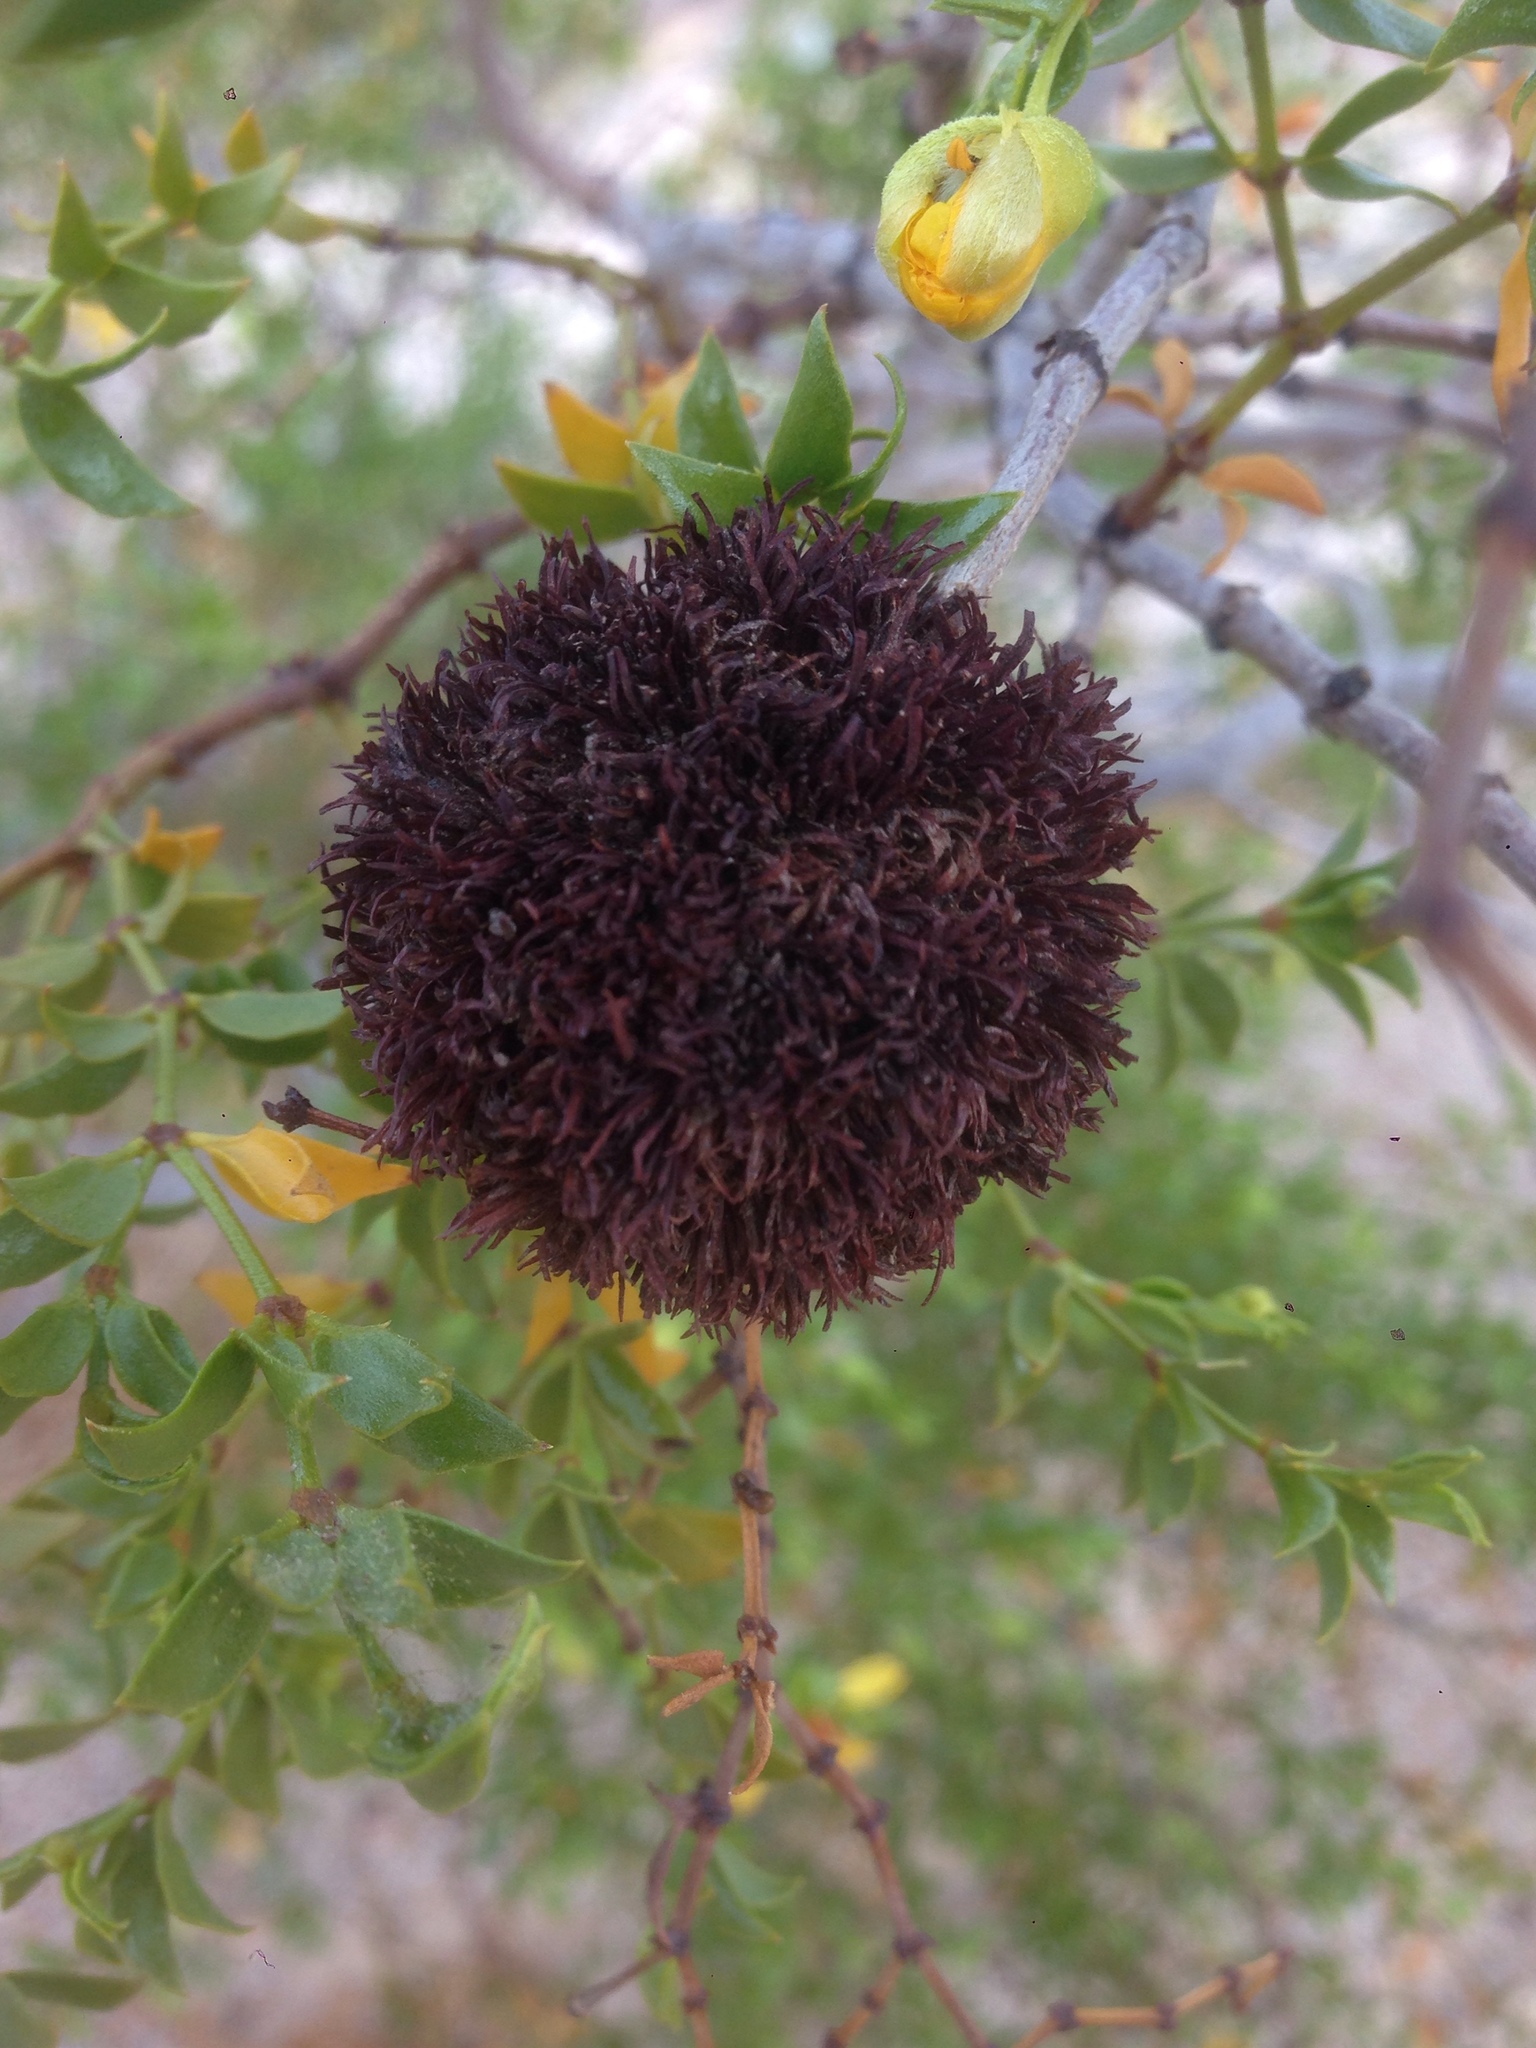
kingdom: Animalia
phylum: Arthropoda
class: Insecta
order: Diptera
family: Cecidomyiidae
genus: Asphondylia
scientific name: Asphondylia auripila
